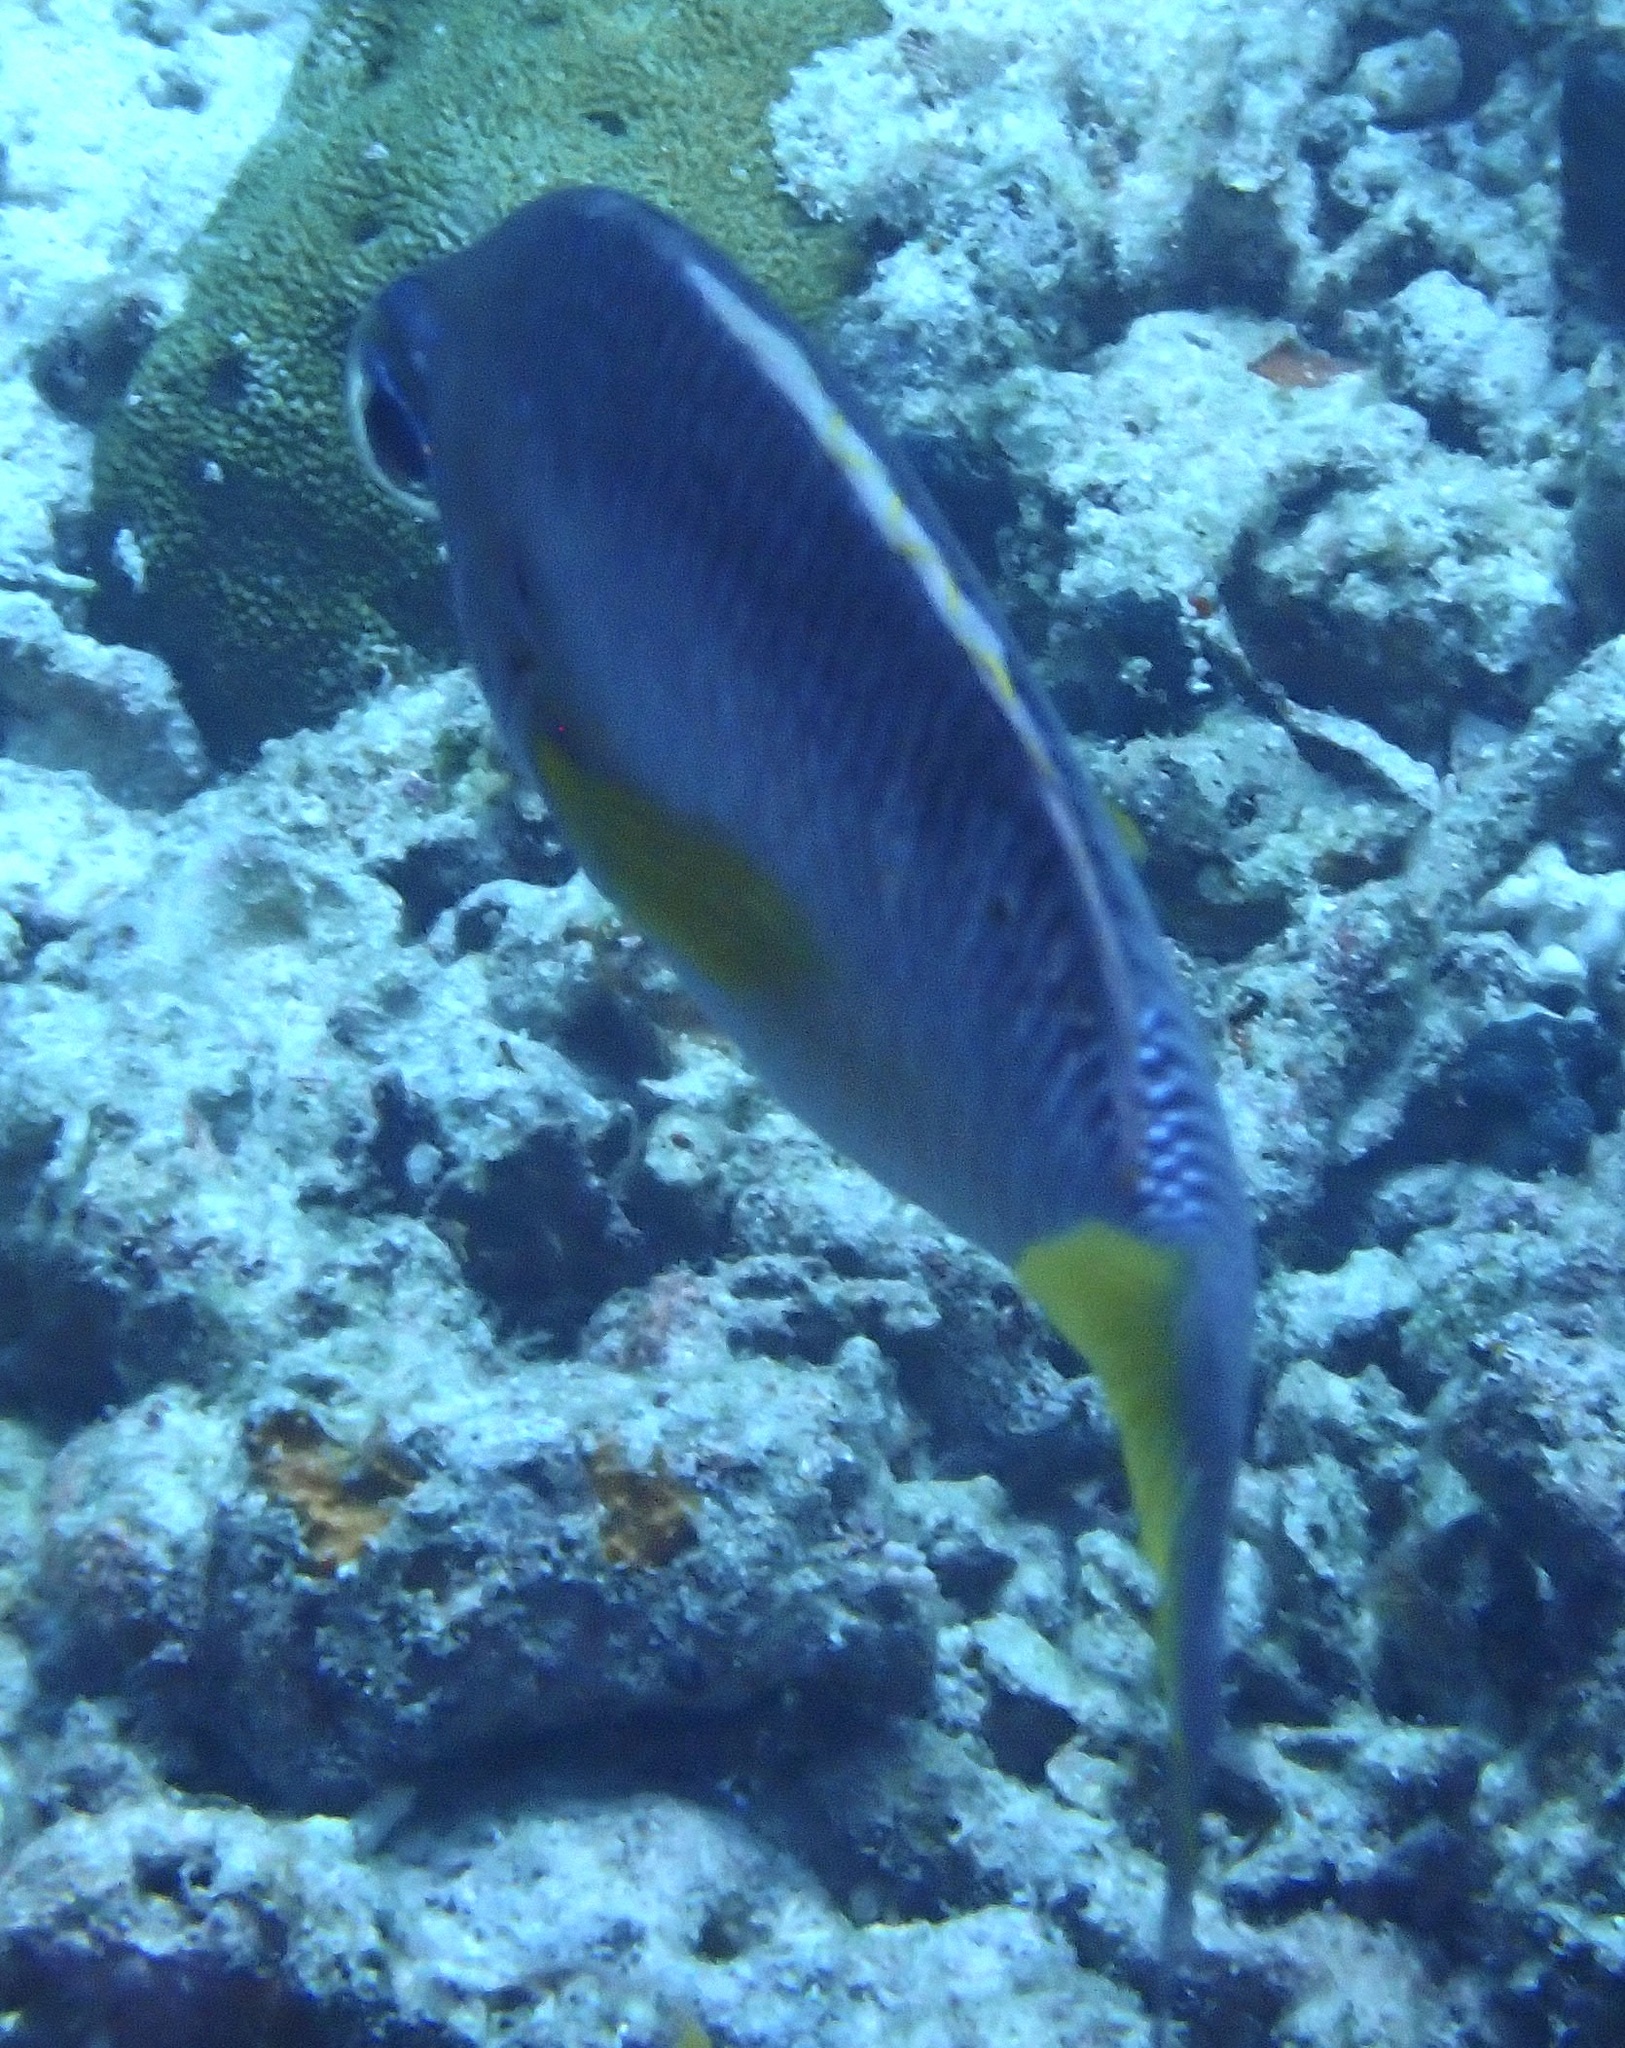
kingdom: Animalia
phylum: Chordata
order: Perciformes
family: Nemipteridae
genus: Scolopsis
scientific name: Scolopsis margaritifera
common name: Pearly monocle bream
